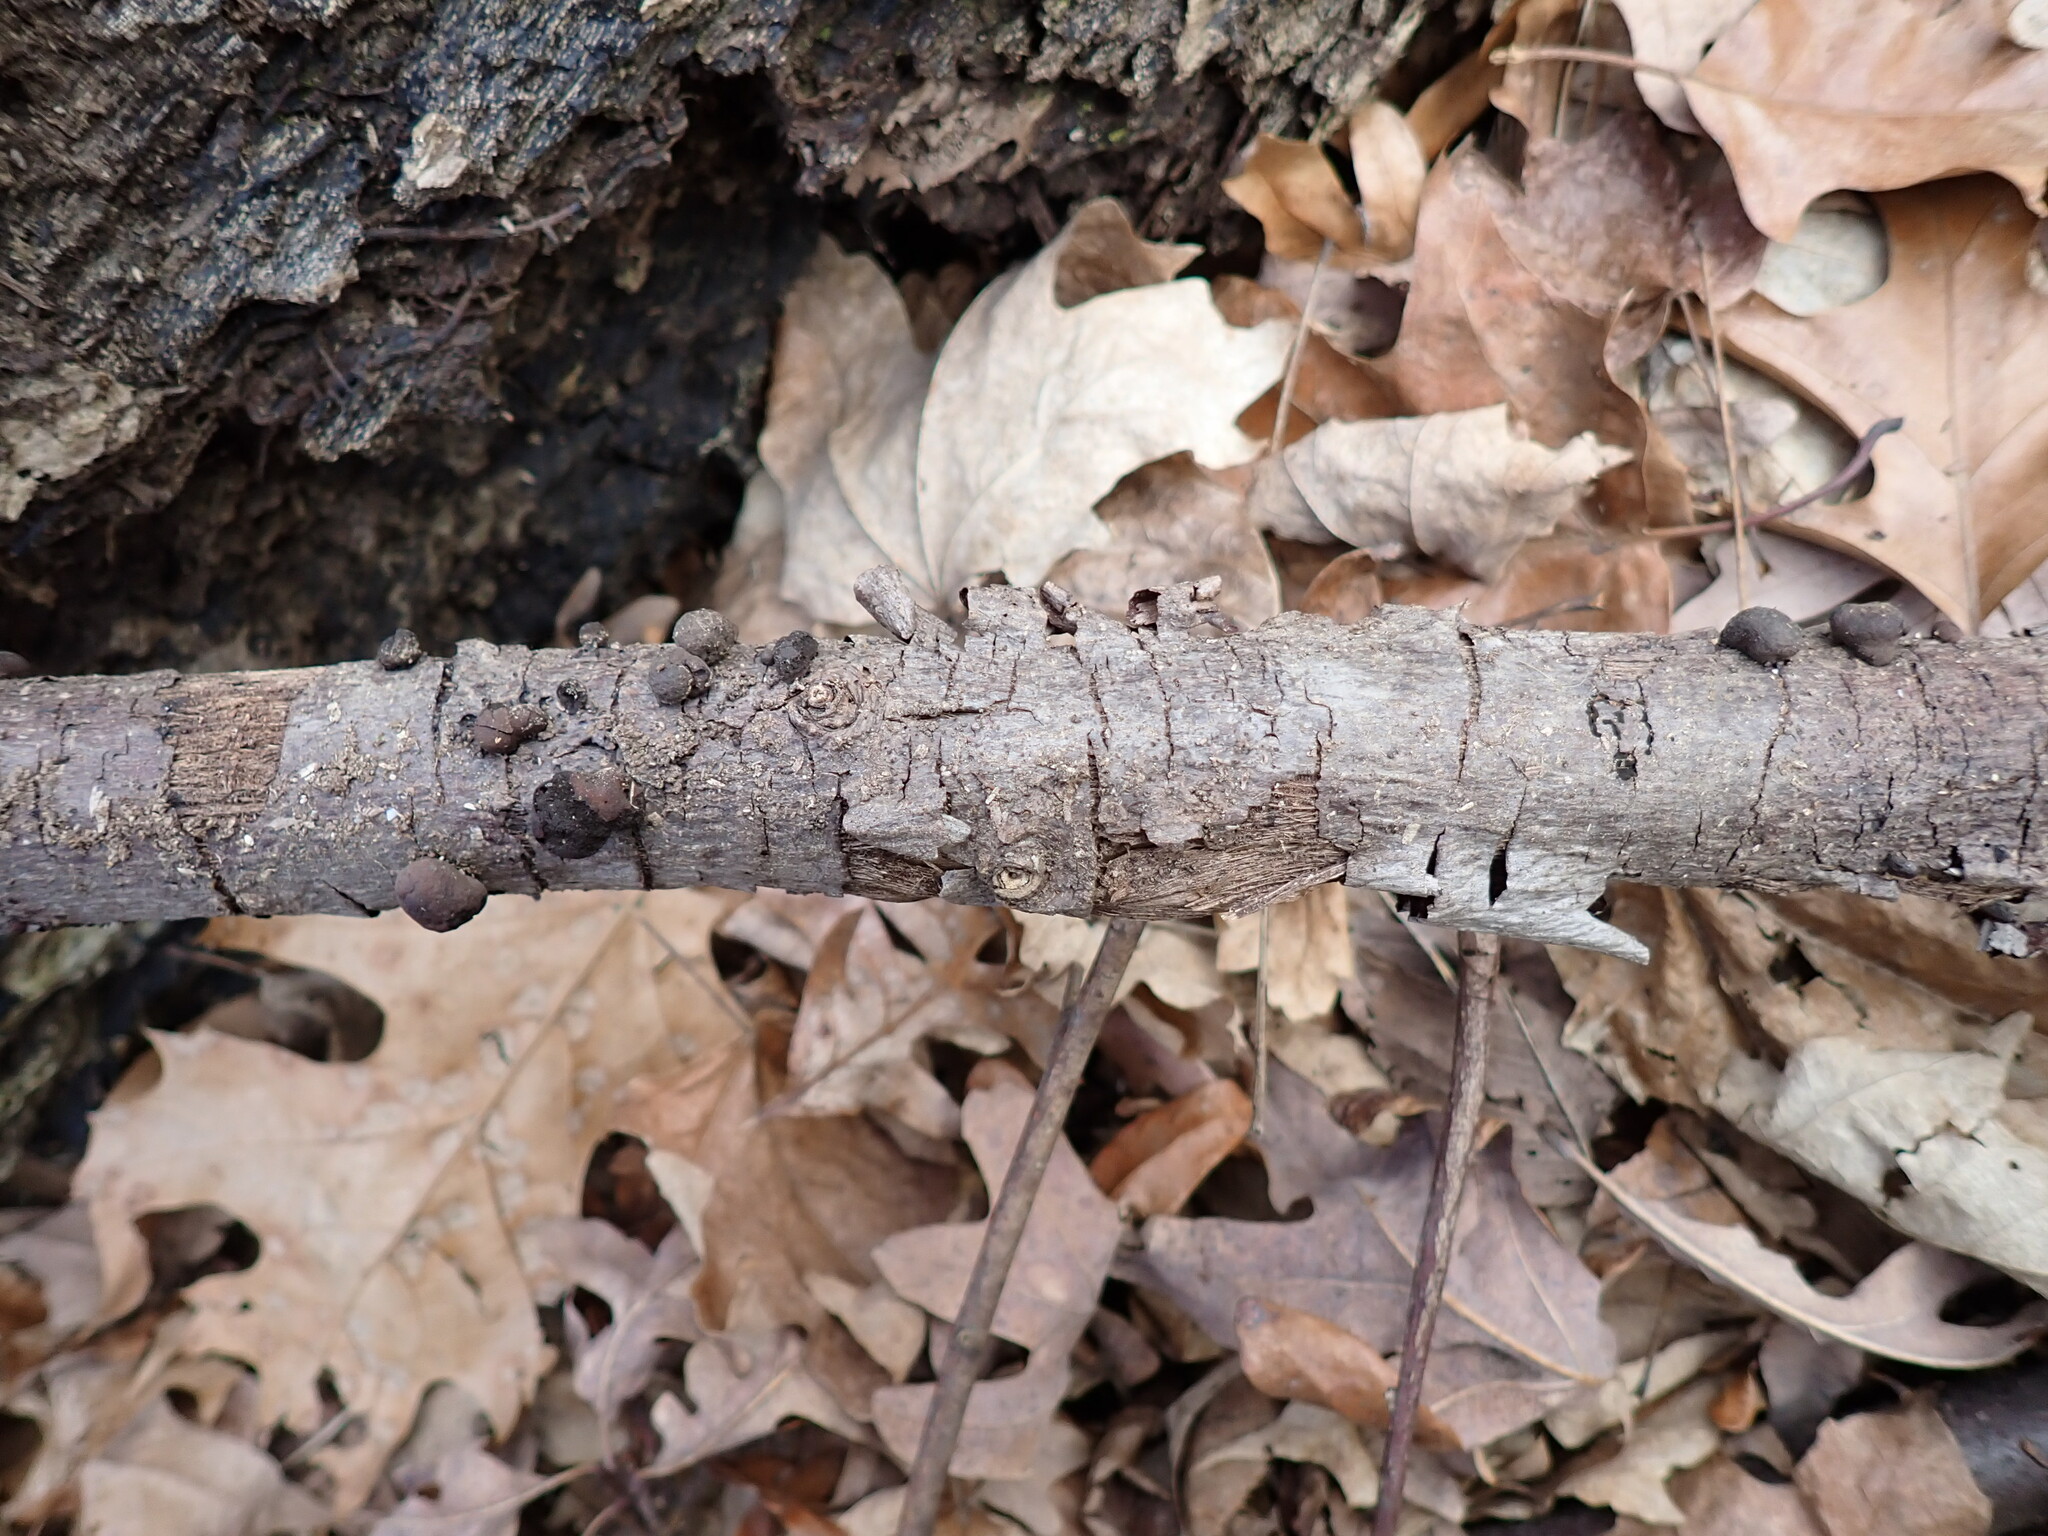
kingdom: Fungi
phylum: Ascomycota
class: Sordariomycetes
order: Xylariales
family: Hypoxylaceae
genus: Daldinia
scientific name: Daldinia childiae
